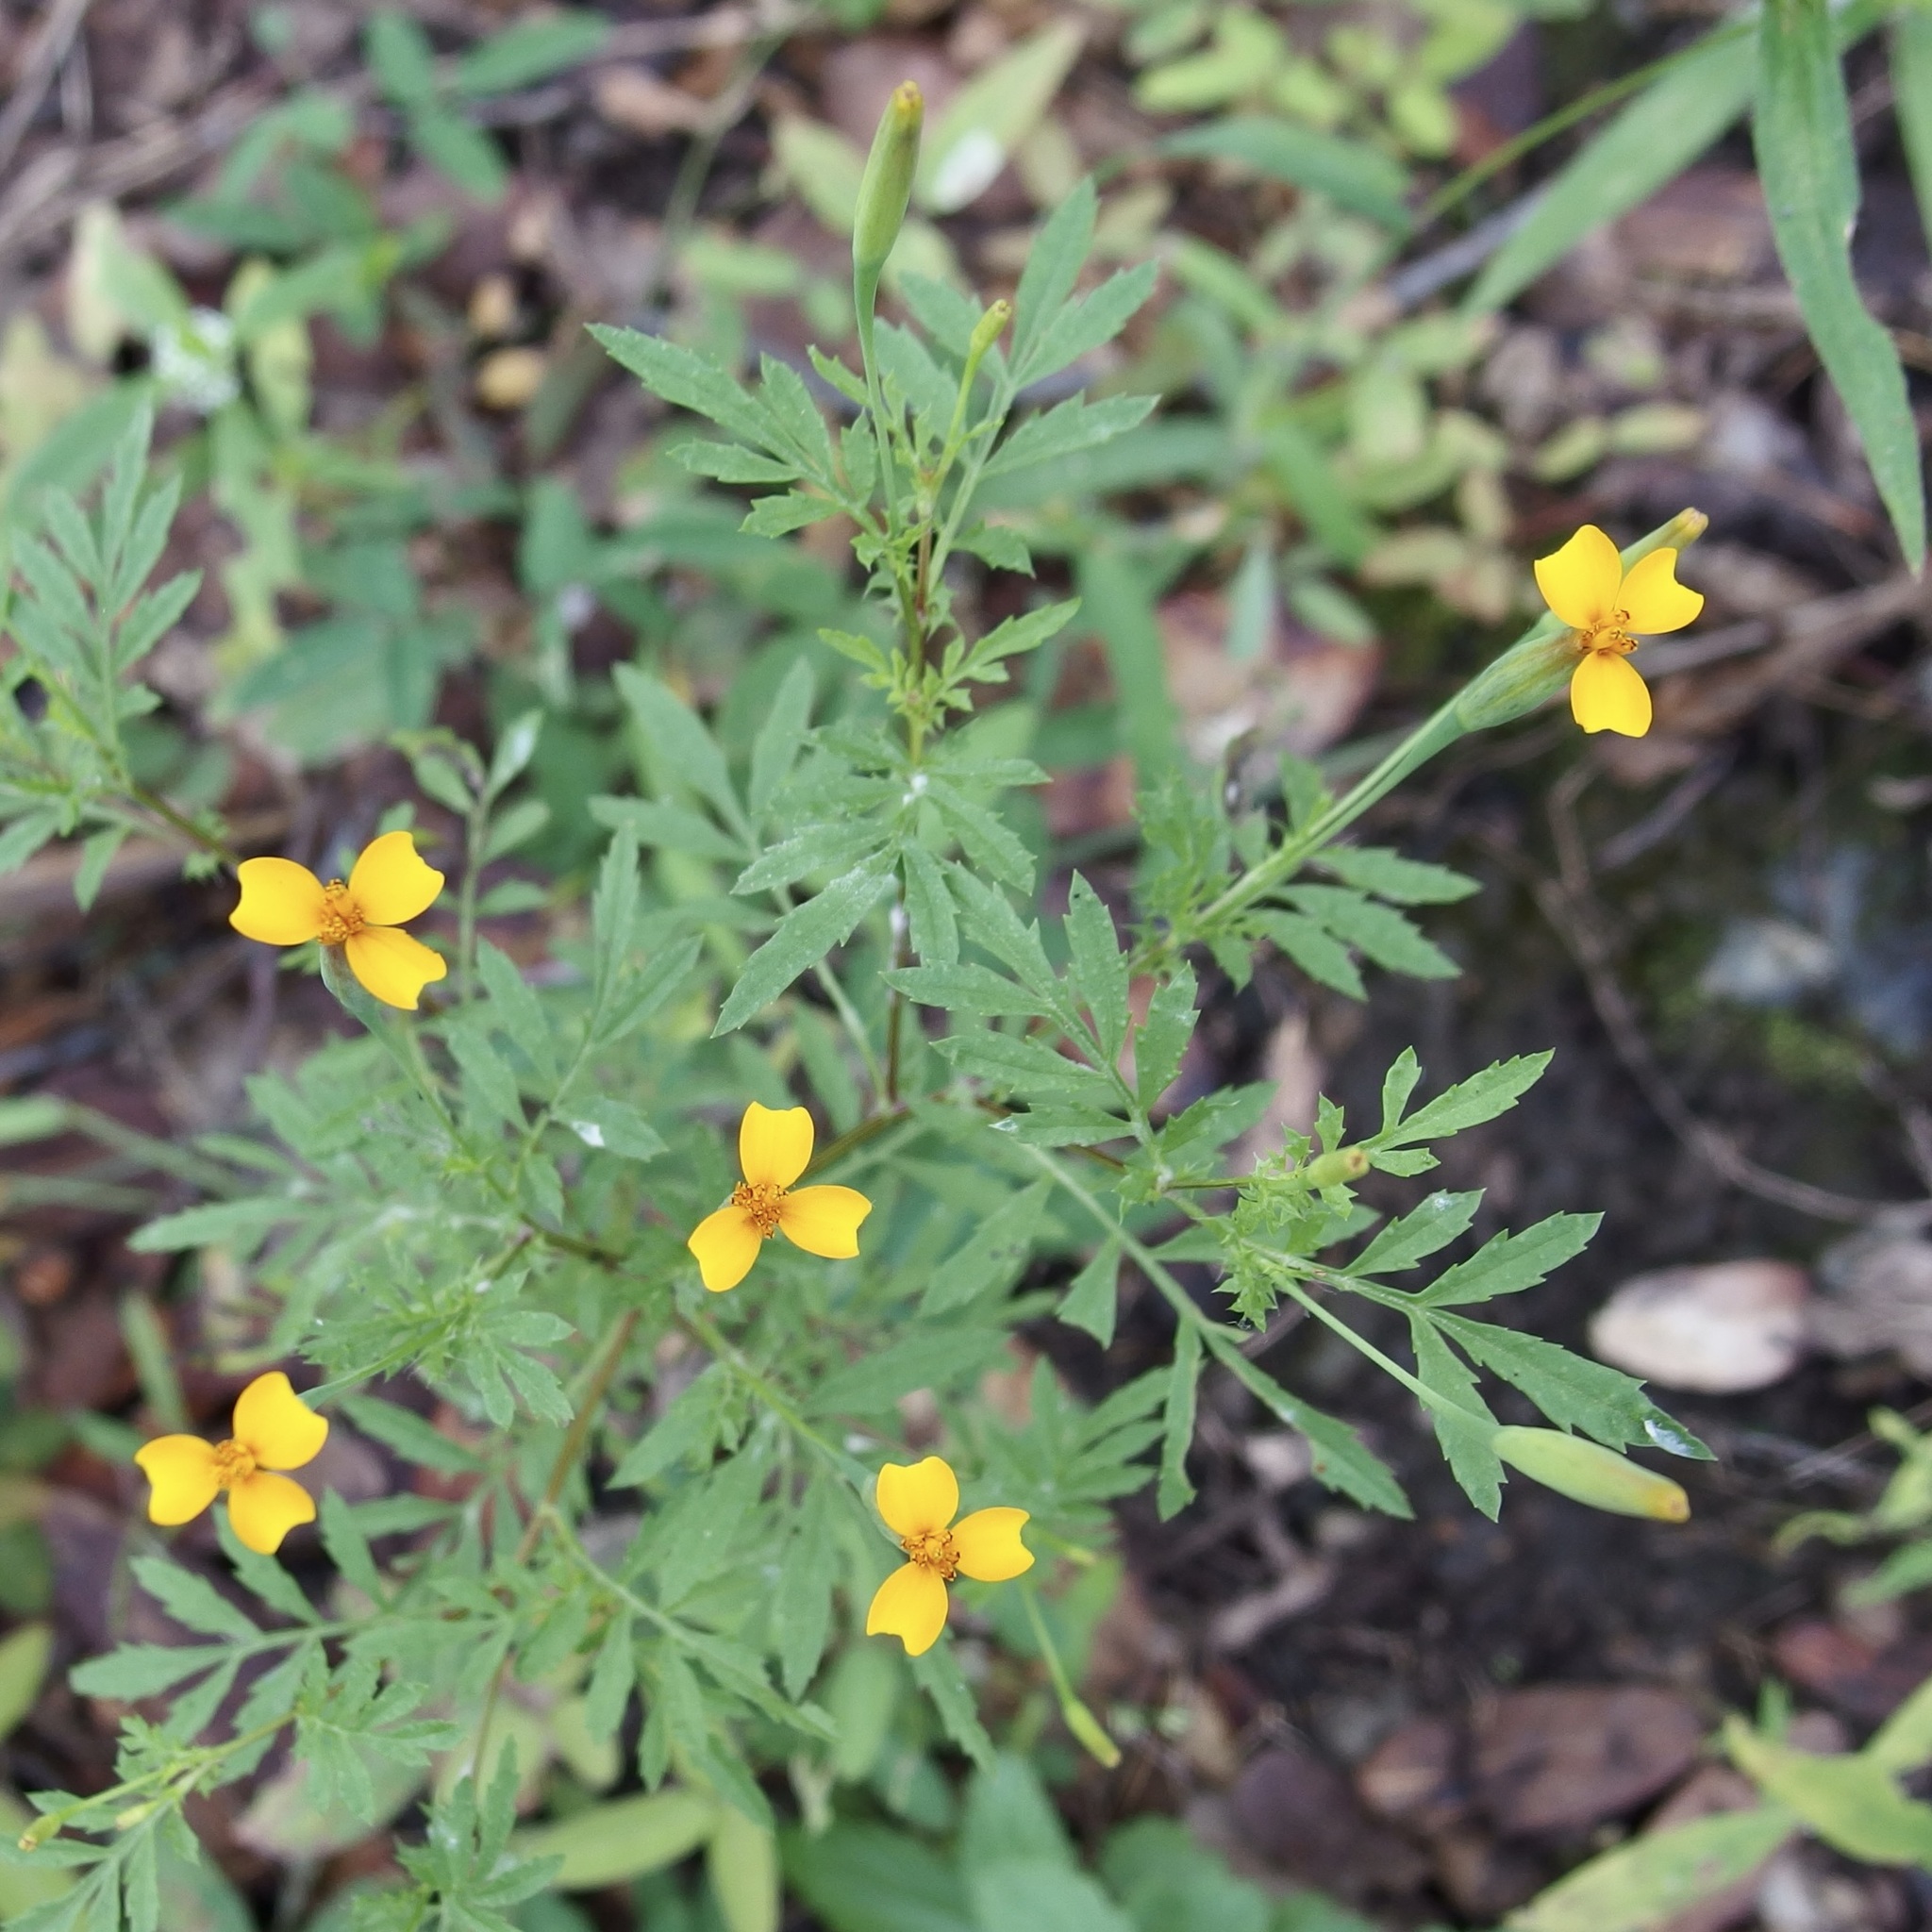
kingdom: Plantae
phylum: Tracheophyta
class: Magnoliopsida
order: Asterales
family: Asteraceae
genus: Tagetes
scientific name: Tagetes triradiata
